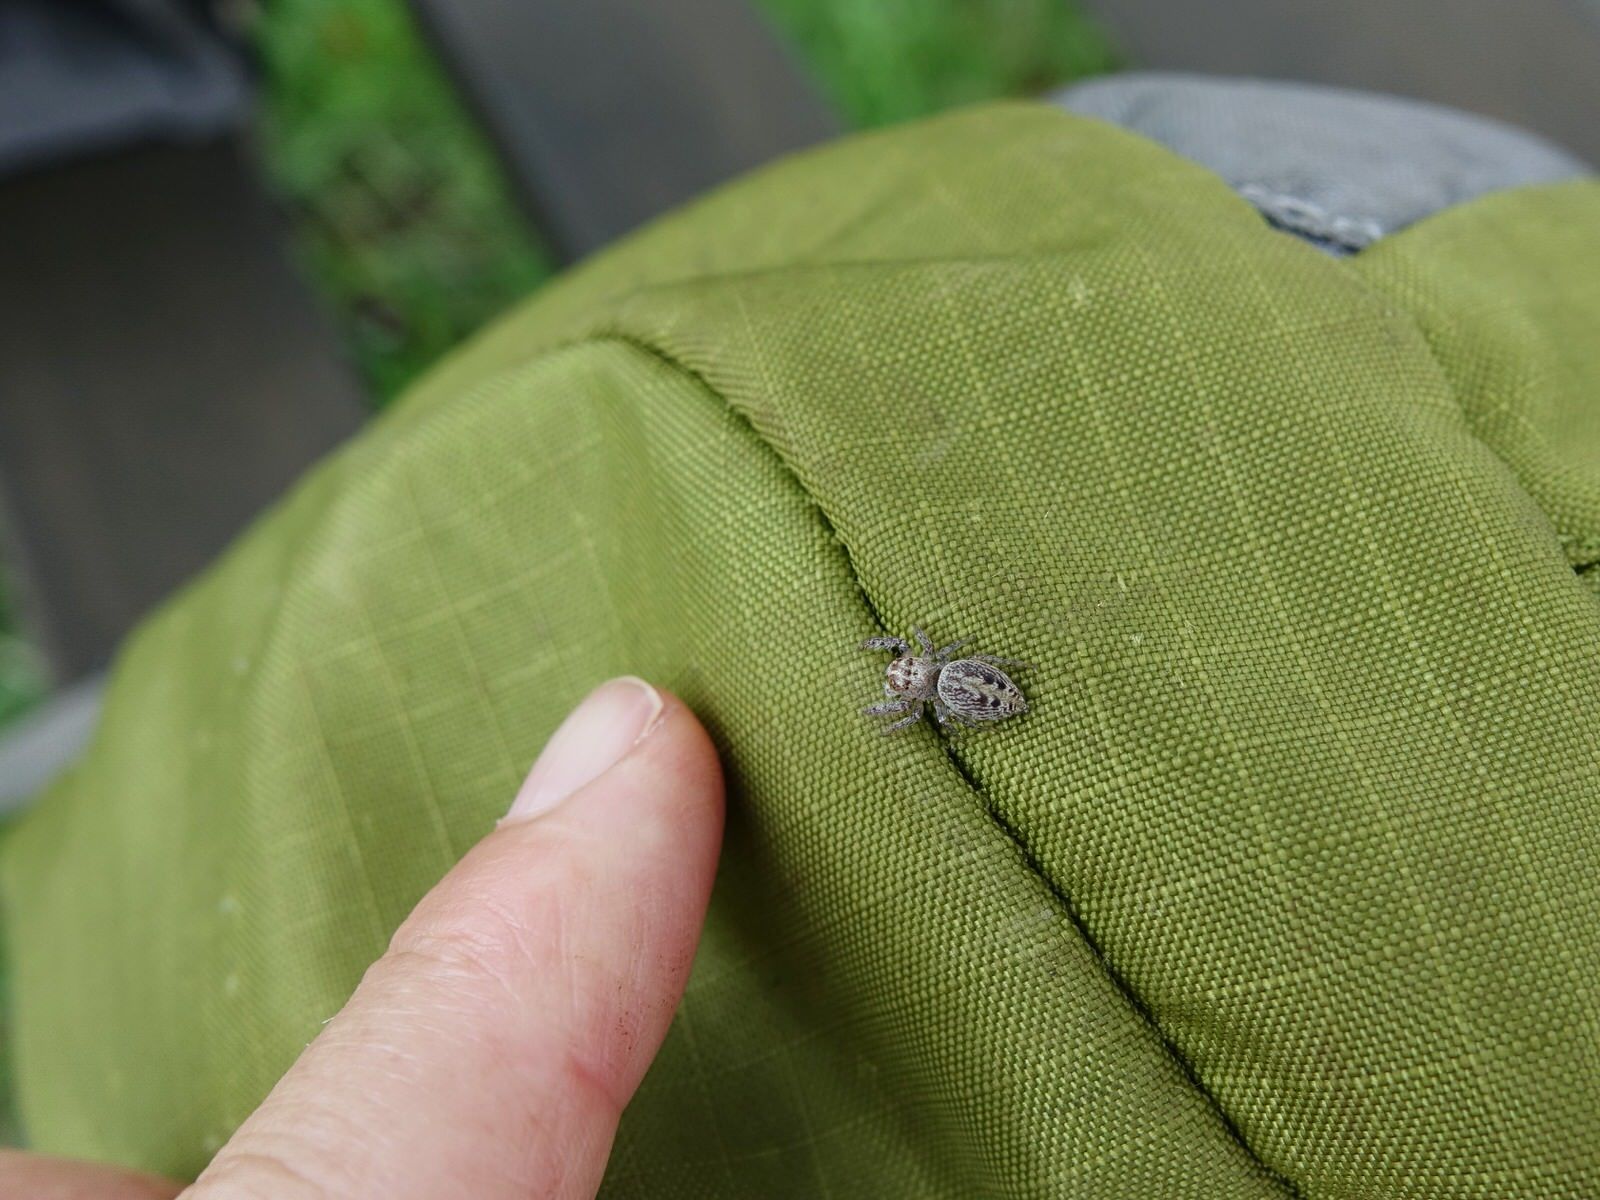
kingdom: Animalia
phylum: Arthropoda
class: Arachnida
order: Araneae
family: Salticidae
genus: Opisthoncus
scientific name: Opisthoncus polyphemus
